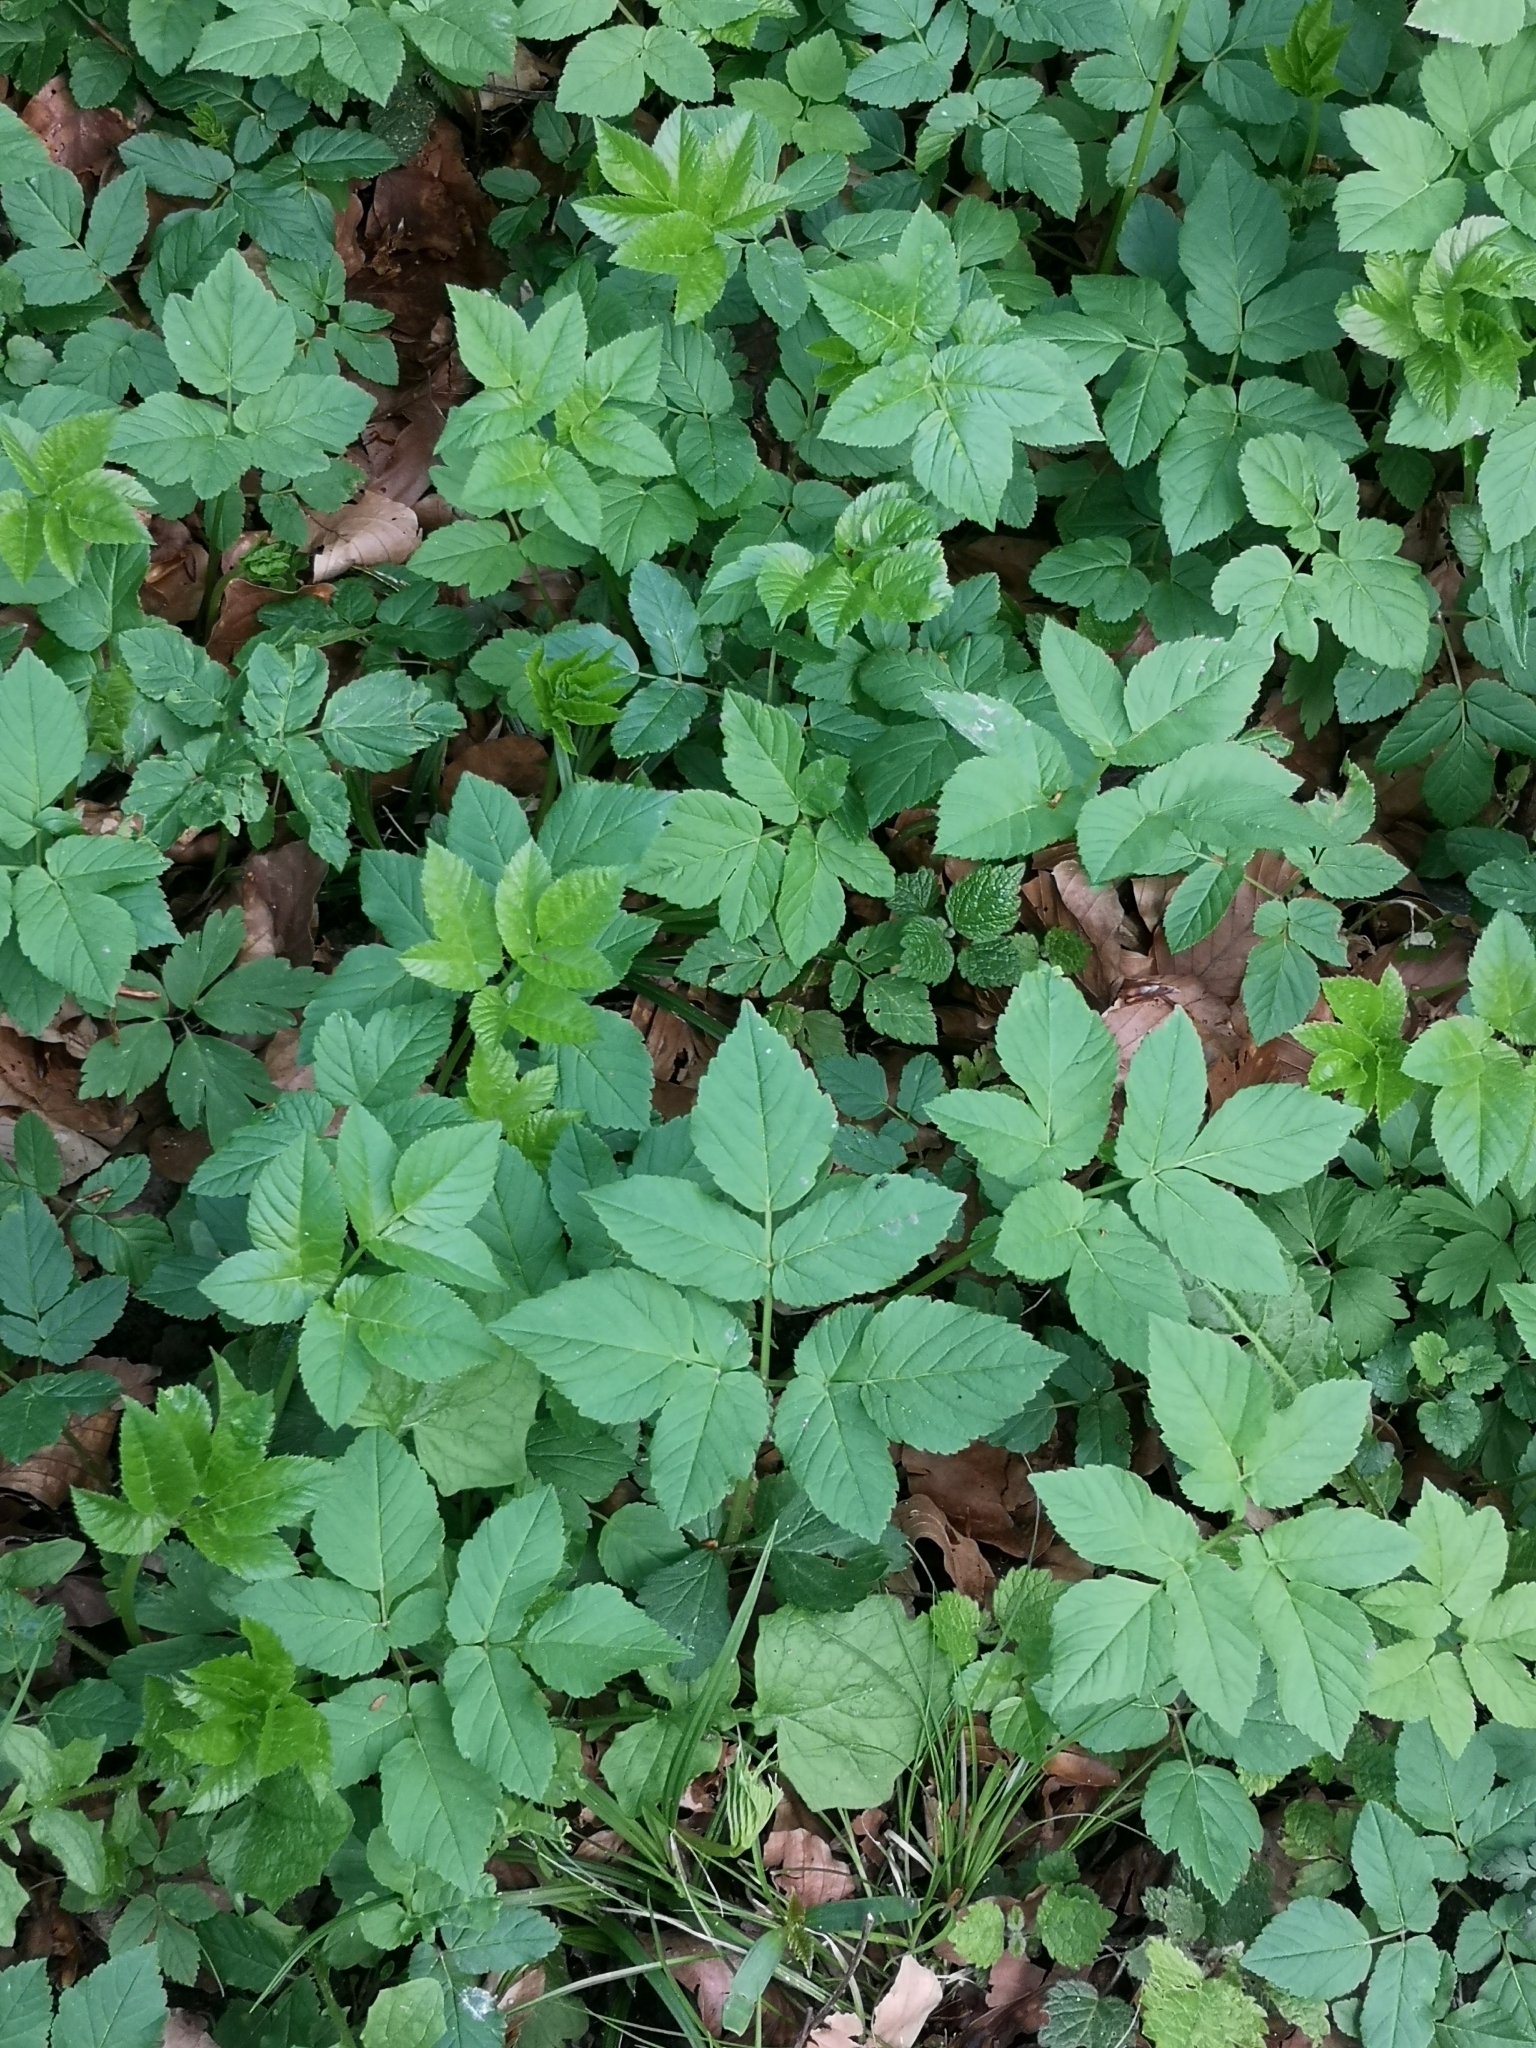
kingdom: Plantae
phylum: Tracheophyta
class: Magnoliopsida
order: Apiales
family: Apiaceae
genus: Aegopodium
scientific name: Aegopodium podagraria
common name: Ground-elder
